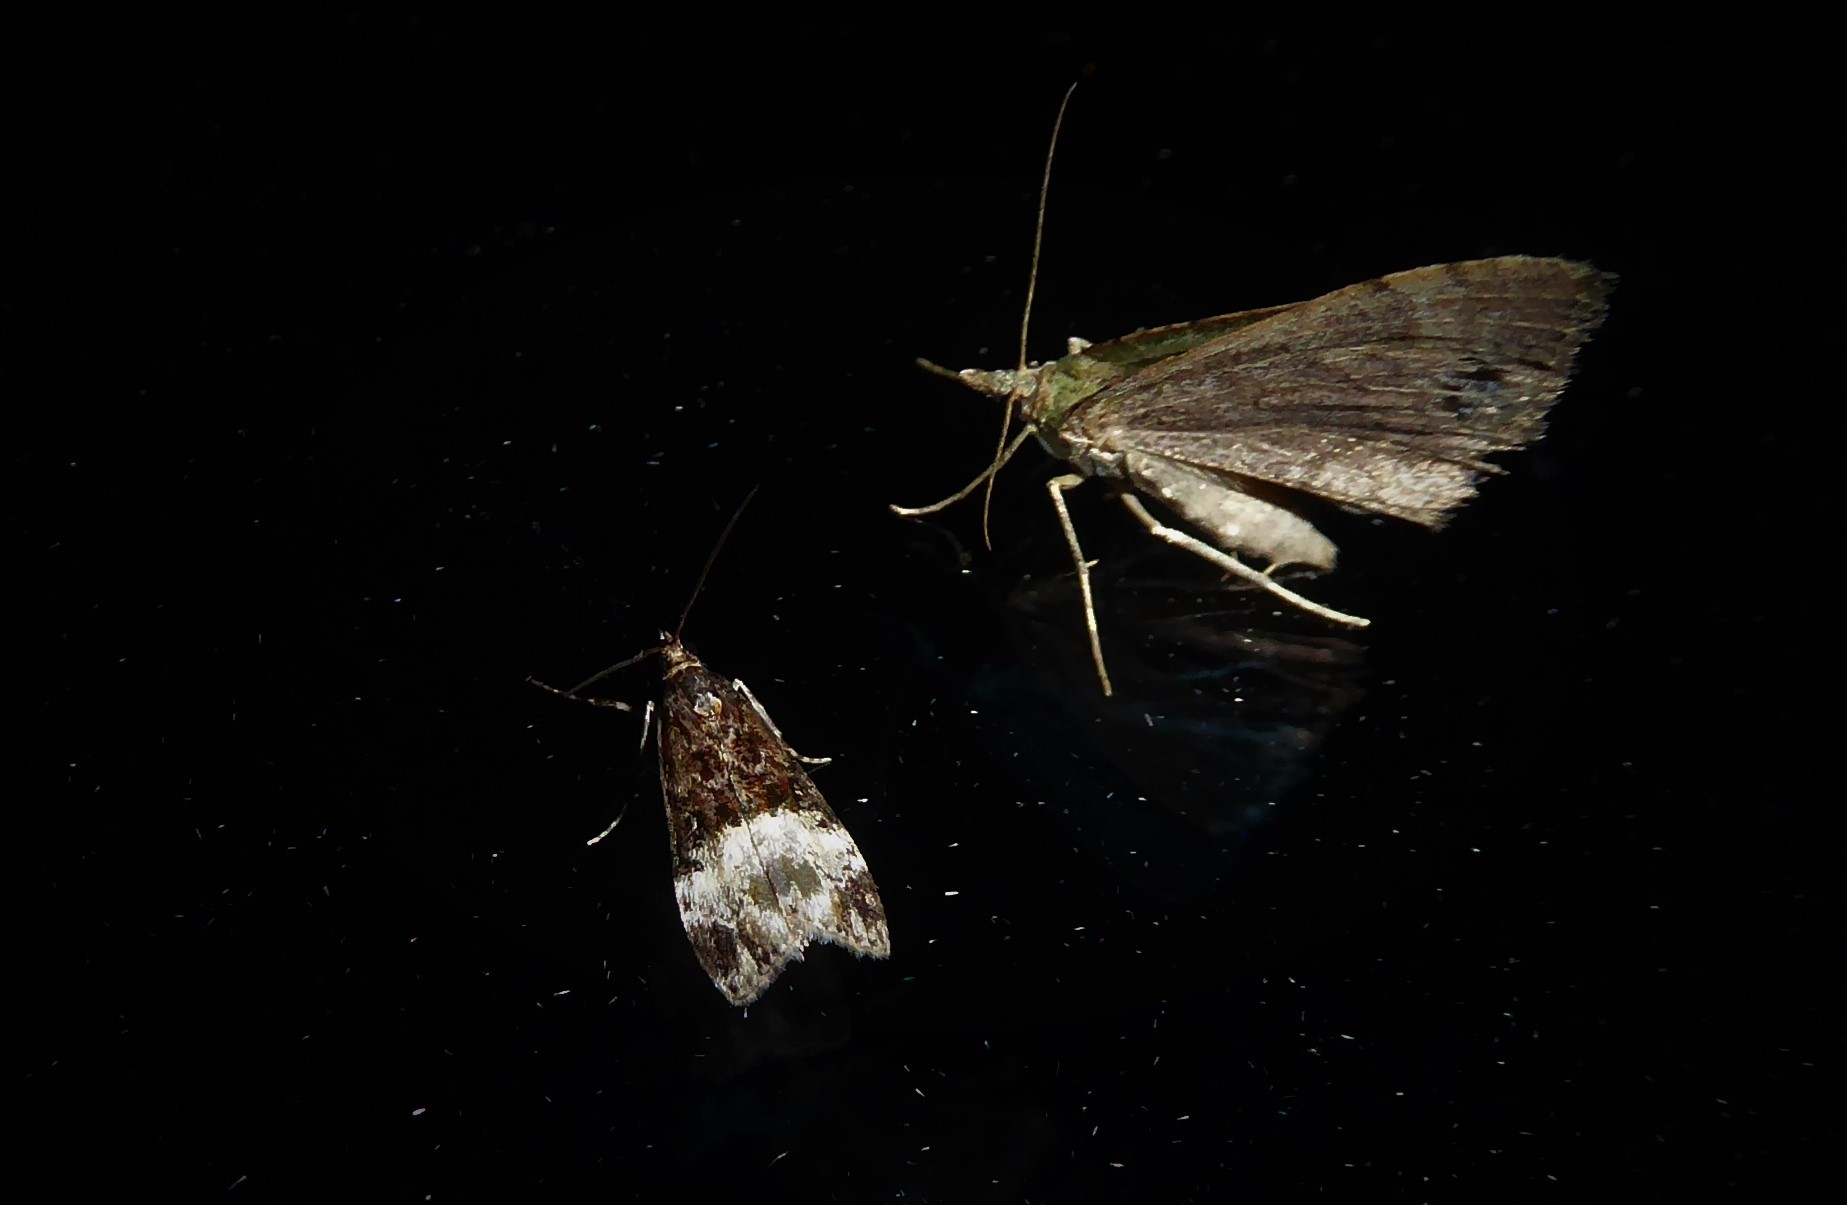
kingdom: Animalia
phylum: Arthropoda
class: Insecta
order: Lepidoptera
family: Crambidae
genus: Scoparia
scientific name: Scoparia minusculalis
